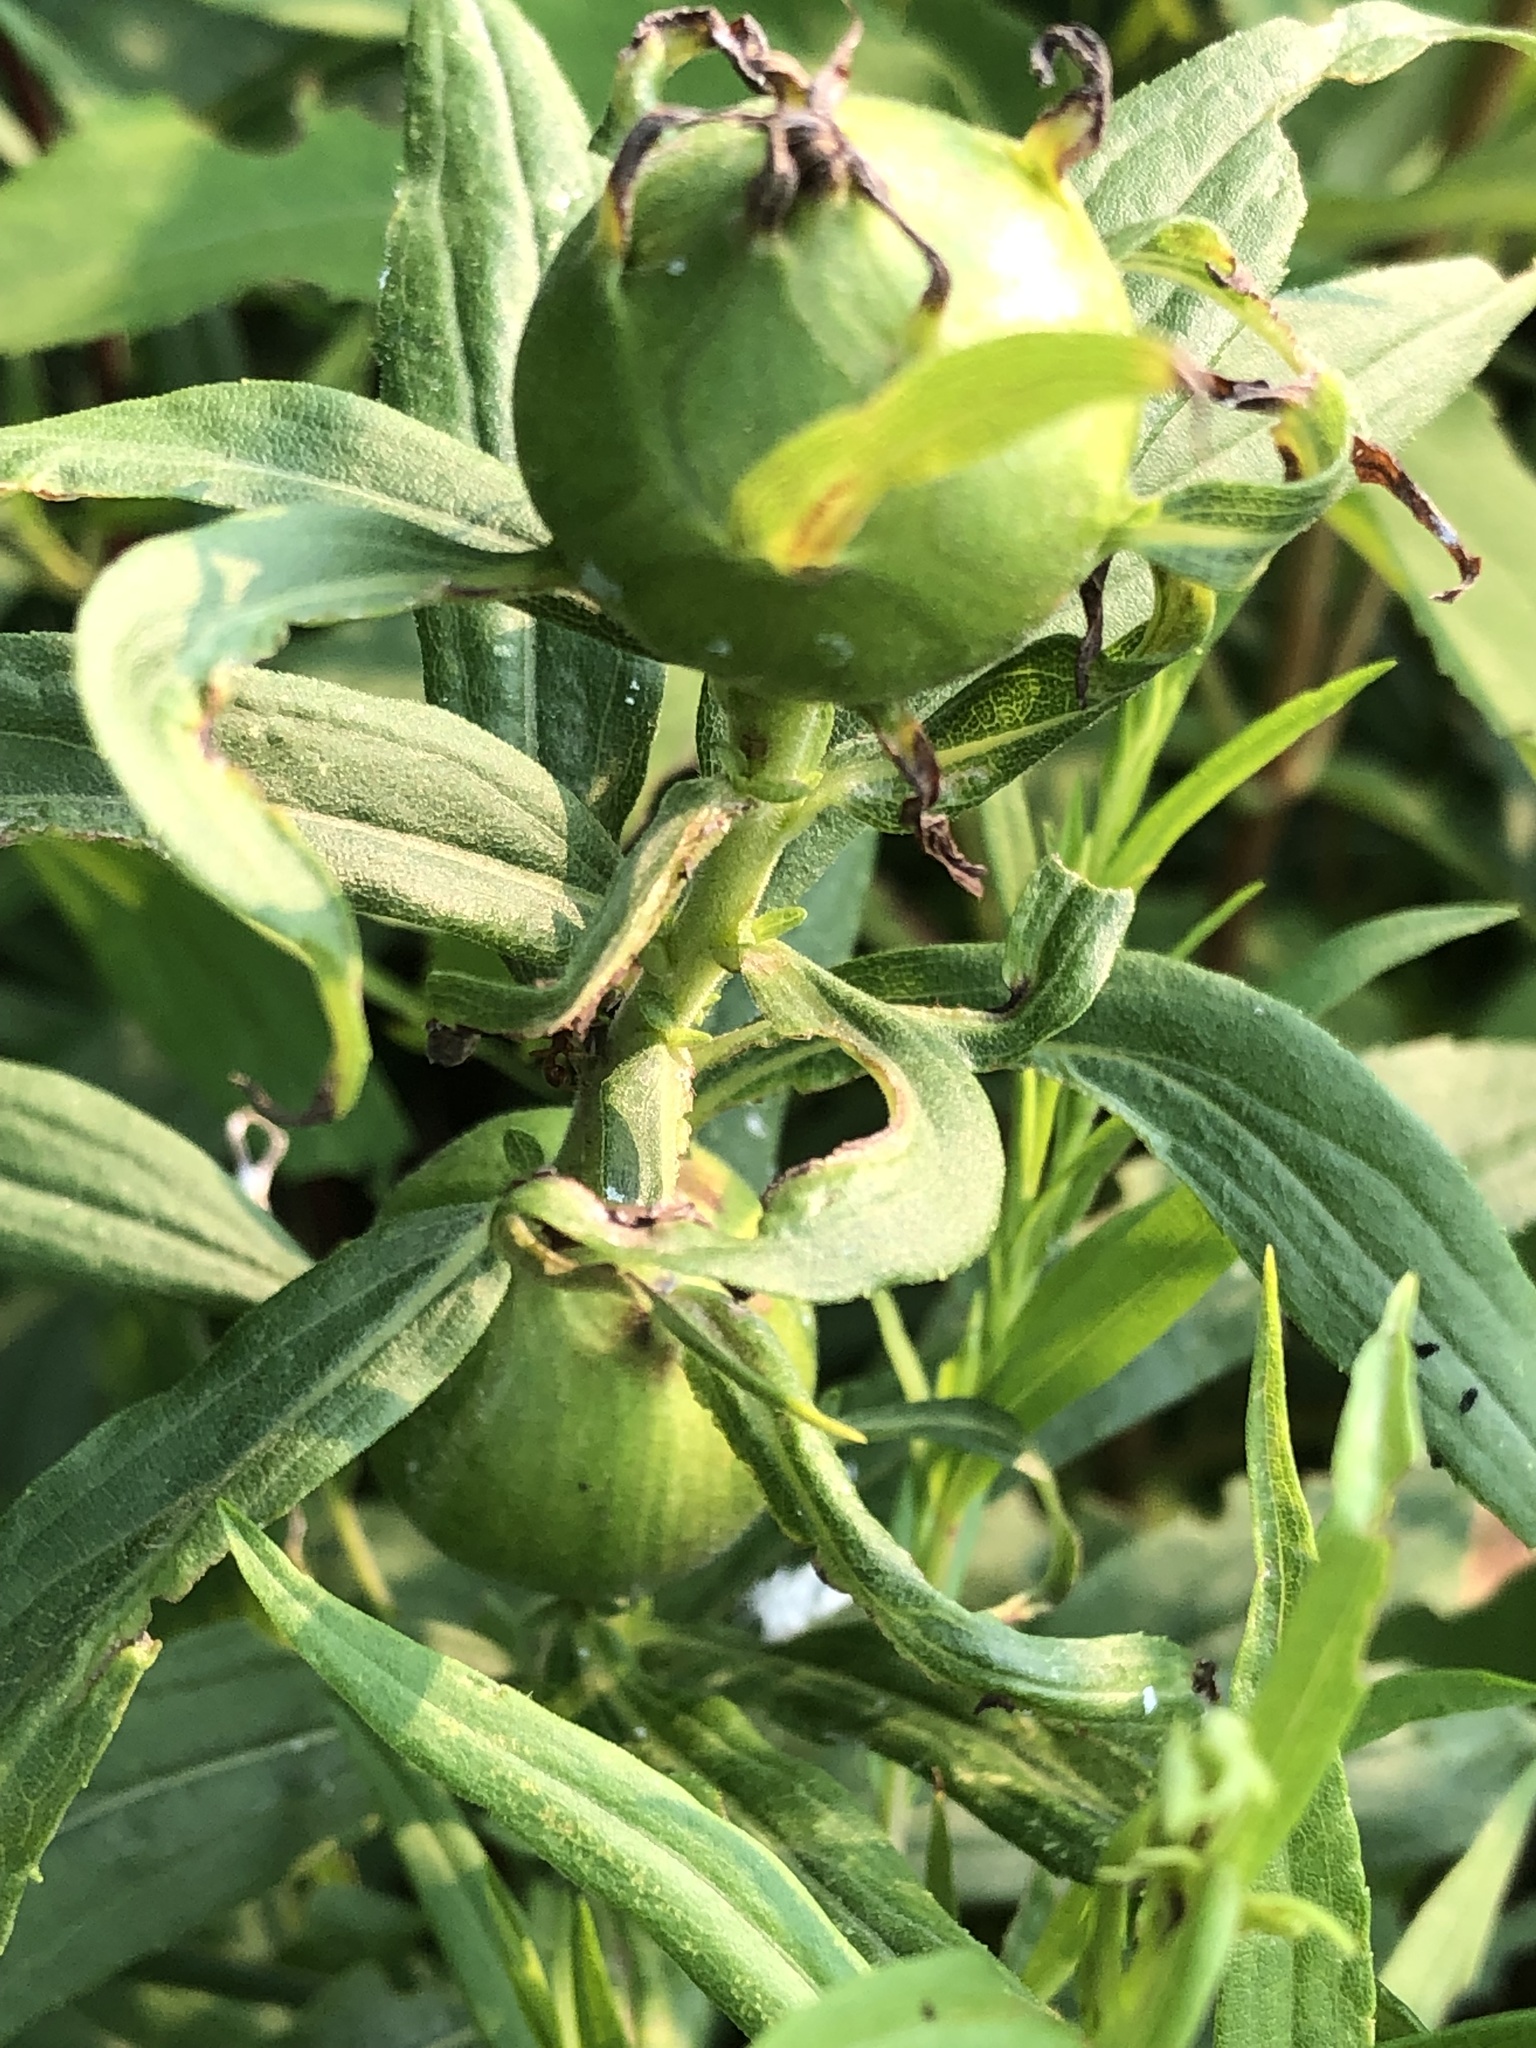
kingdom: Animalia
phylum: Arthropoda
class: Insecta
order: Diptera
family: Tephritidae
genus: Eurosta
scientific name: Eurosta solidaginis
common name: Goldenrod gall fly
